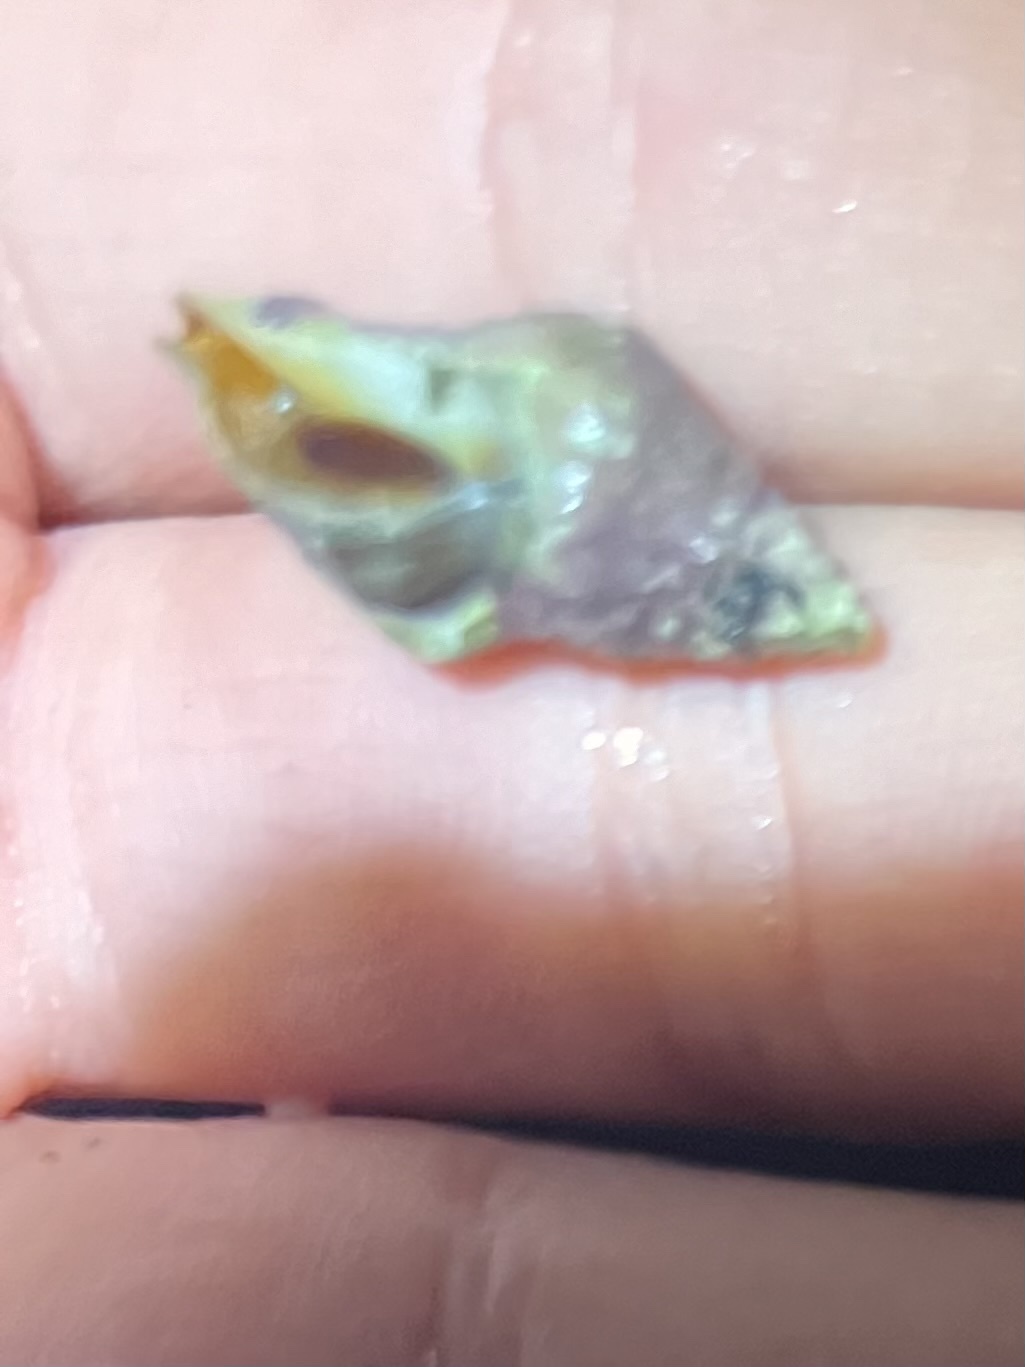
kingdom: Animalia
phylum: Mollusca
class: Gastropoda
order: Neogastropoda
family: Muricidae
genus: Roperia
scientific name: Roperia poulsoni
